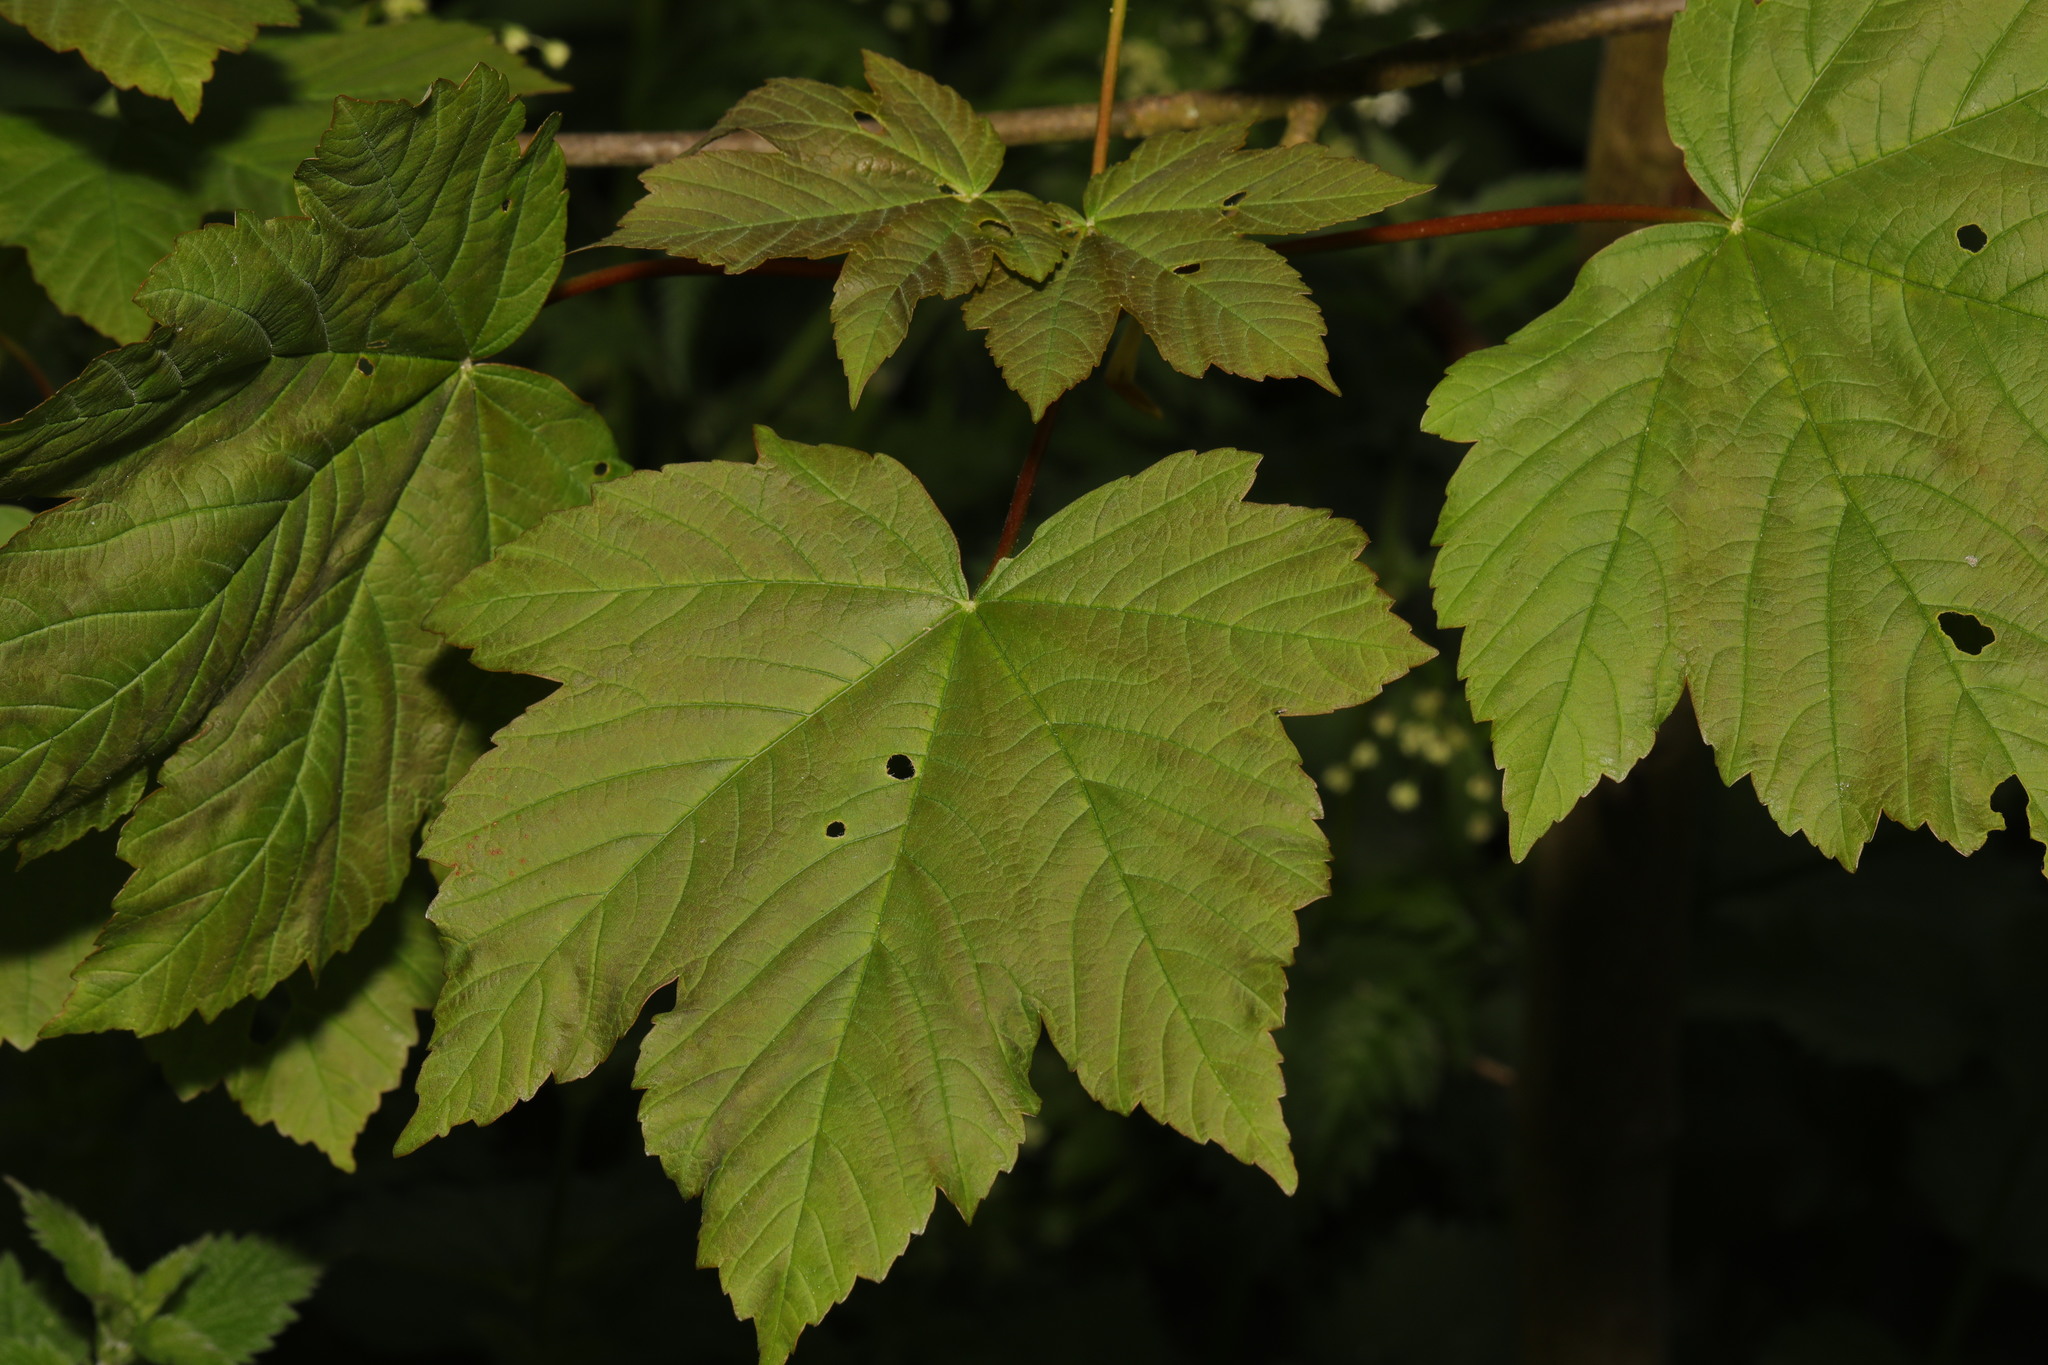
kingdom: Plantae
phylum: Tracheophyta
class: Magnoliopsida
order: Sapindales
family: Sapindaceae
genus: Acer
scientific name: Acer pseudoplatanus
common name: Sycamore
